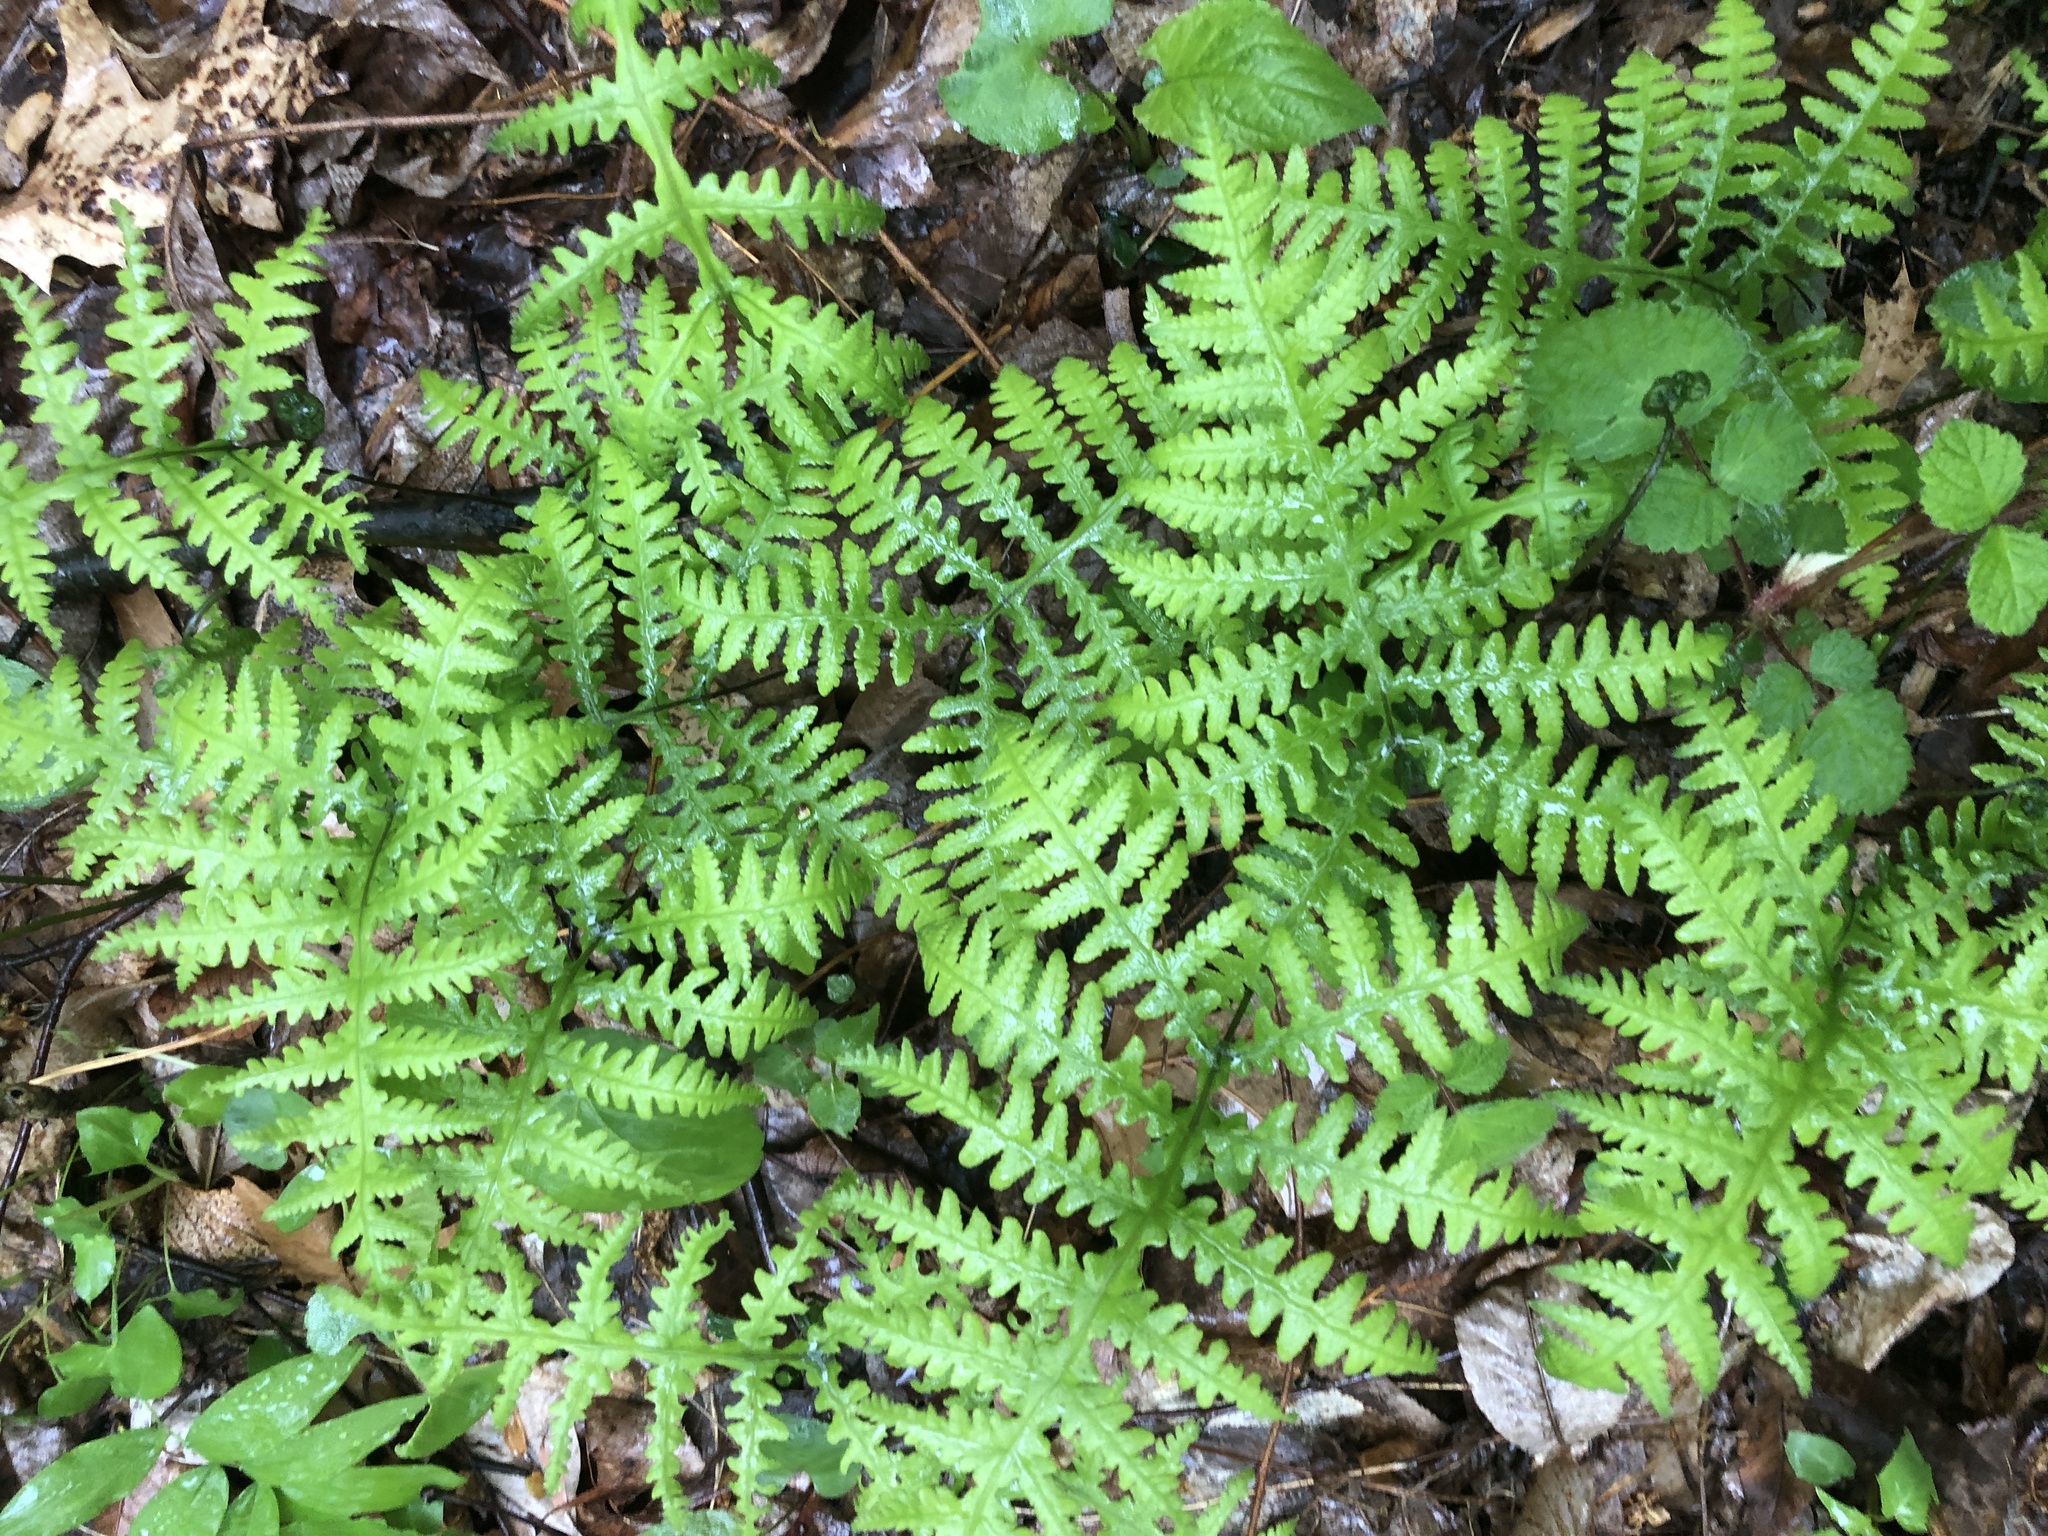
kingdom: Plantae
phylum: Tracheophyta
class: Polypodiopsida
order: Polypodiales
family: Thelypteridaceae
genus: Phegopteris
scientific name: Phegopteris hexagonoptera
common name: Broad beech fern
